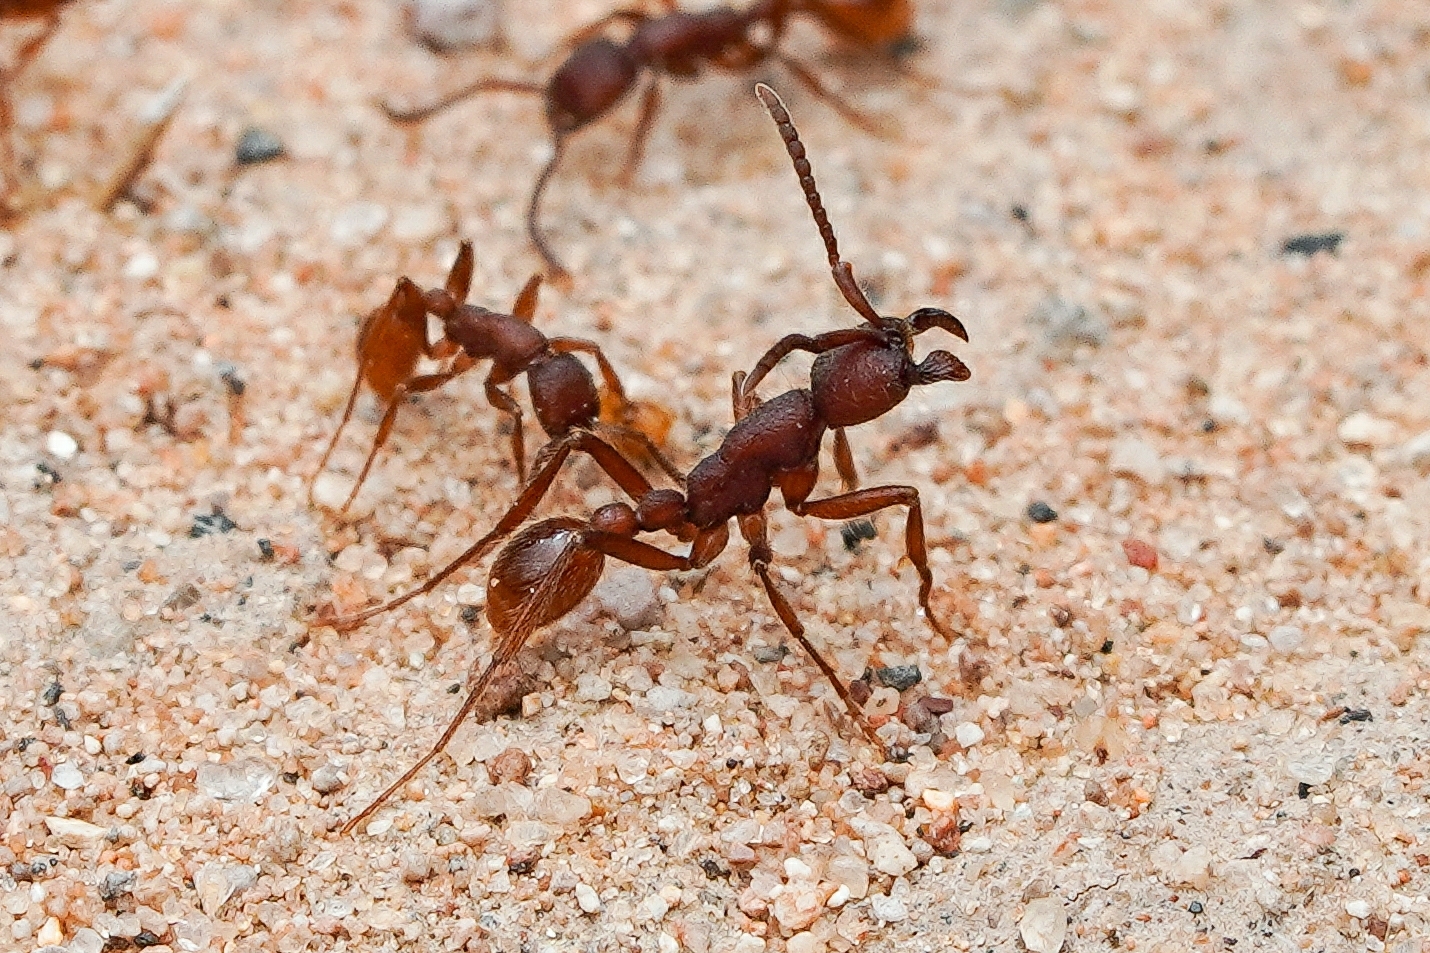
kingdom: Animalia
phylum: Arthropoda
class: Insecta
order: Hymenoptera
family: Formicidae
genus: Neivamyrmex
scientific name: Neivamyrmex nigrescens
